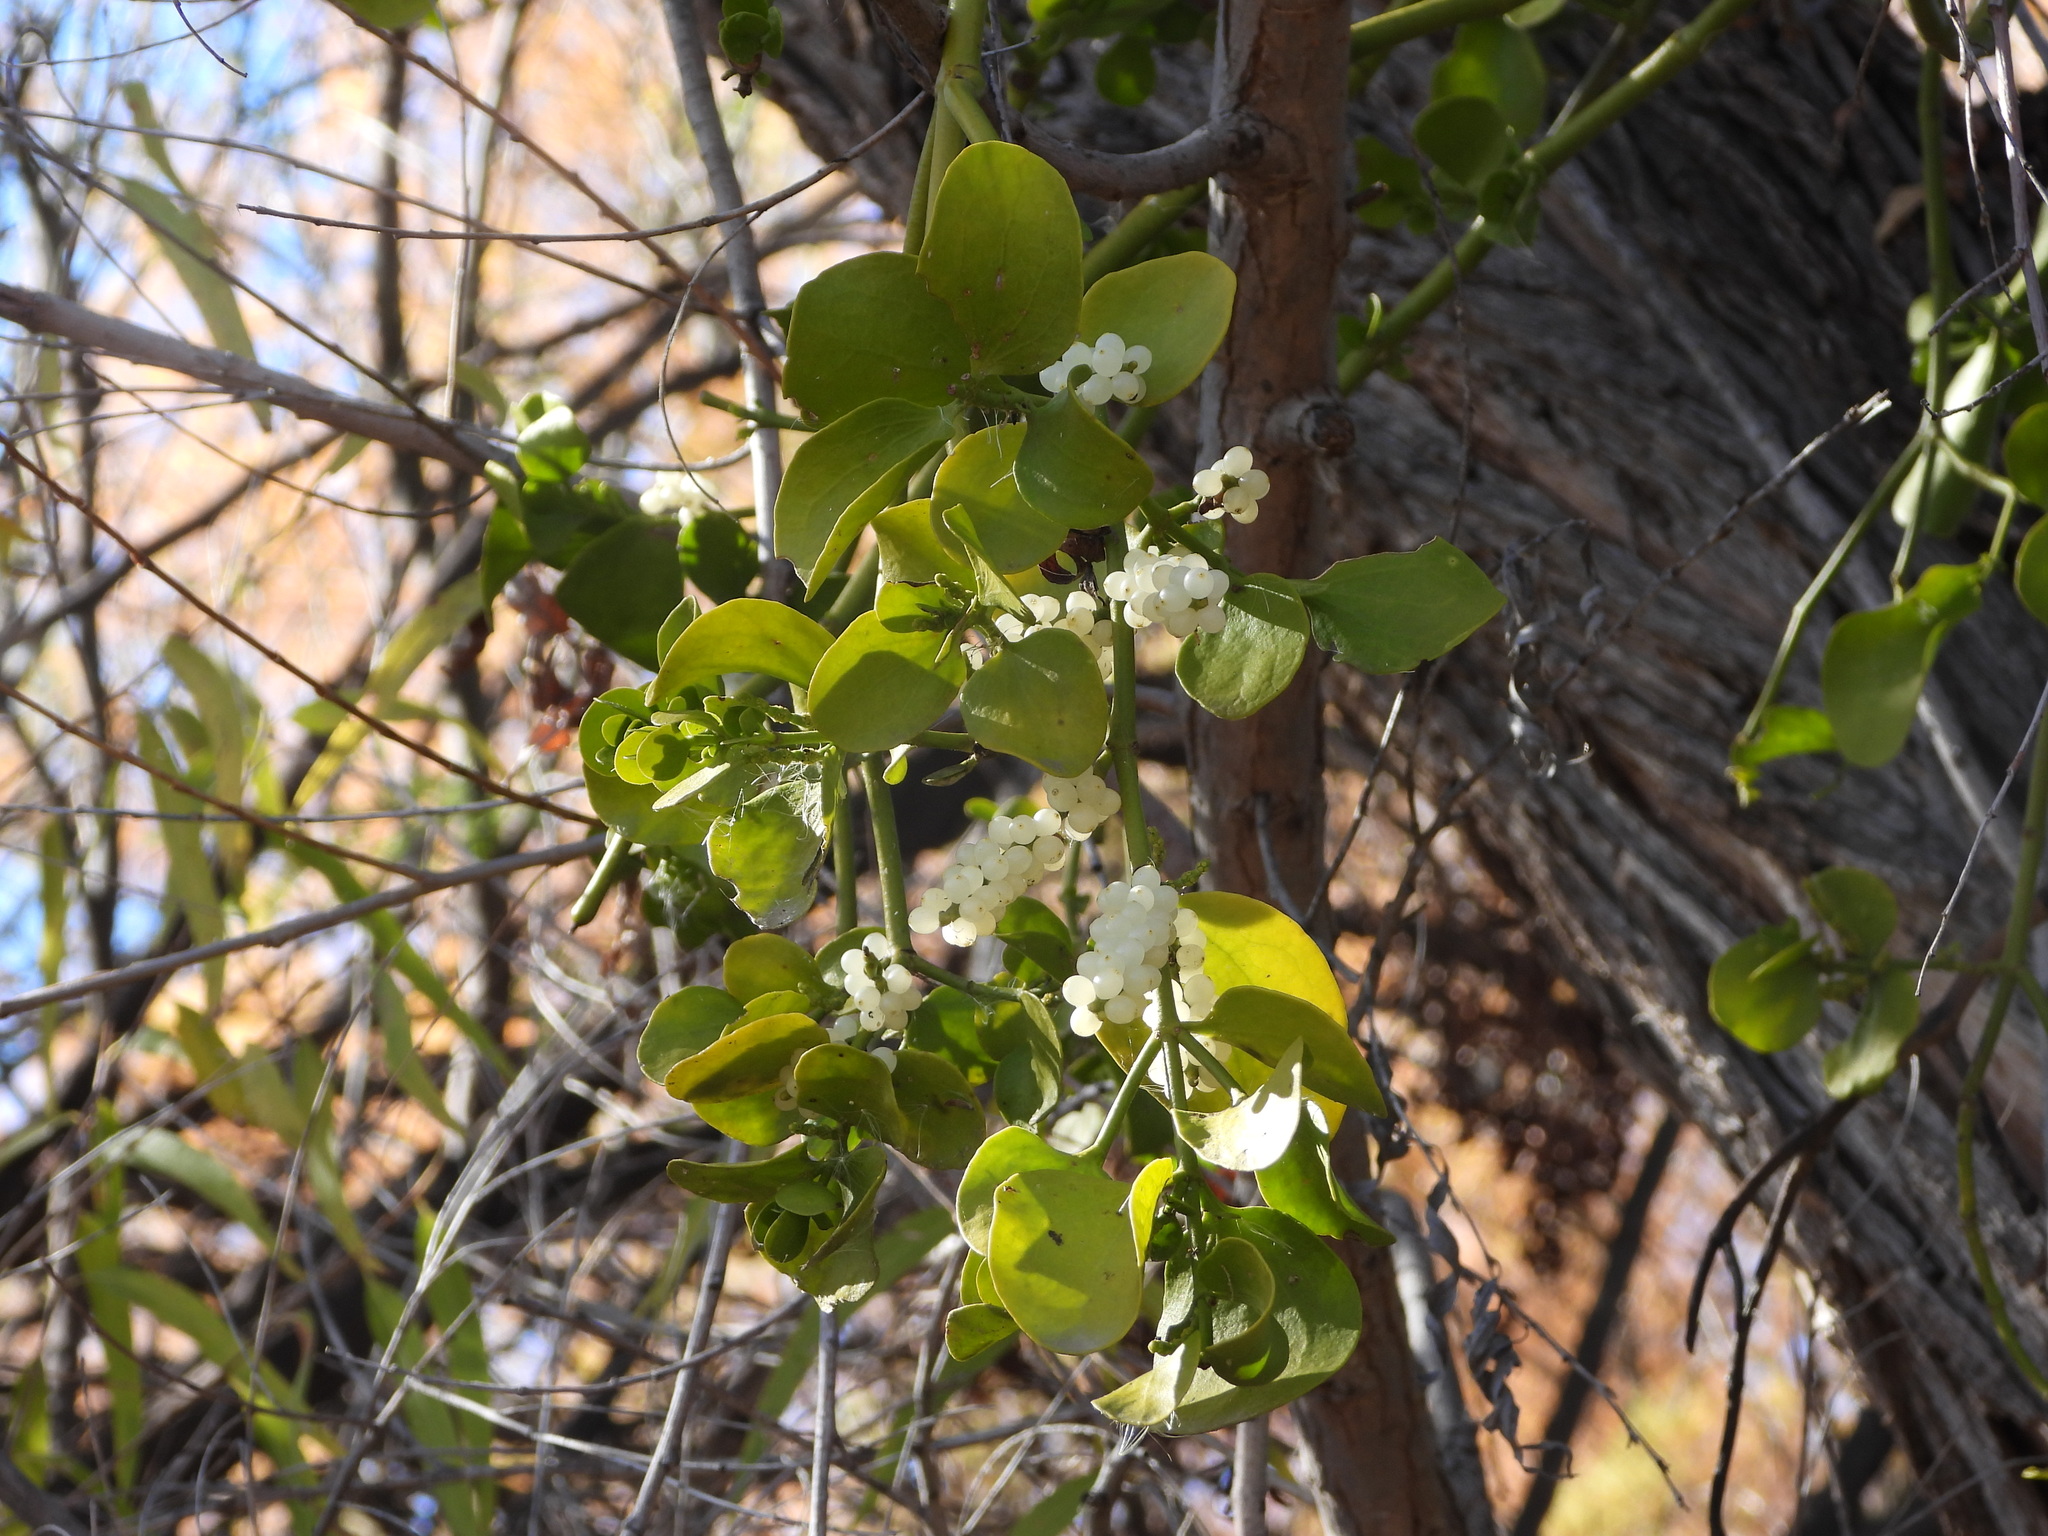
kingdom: Plantae
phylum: Tracheophyta
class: Magnoliopsida
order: Santalales
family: Viscaceae
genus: Phoradendron
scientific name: Phoradendron
